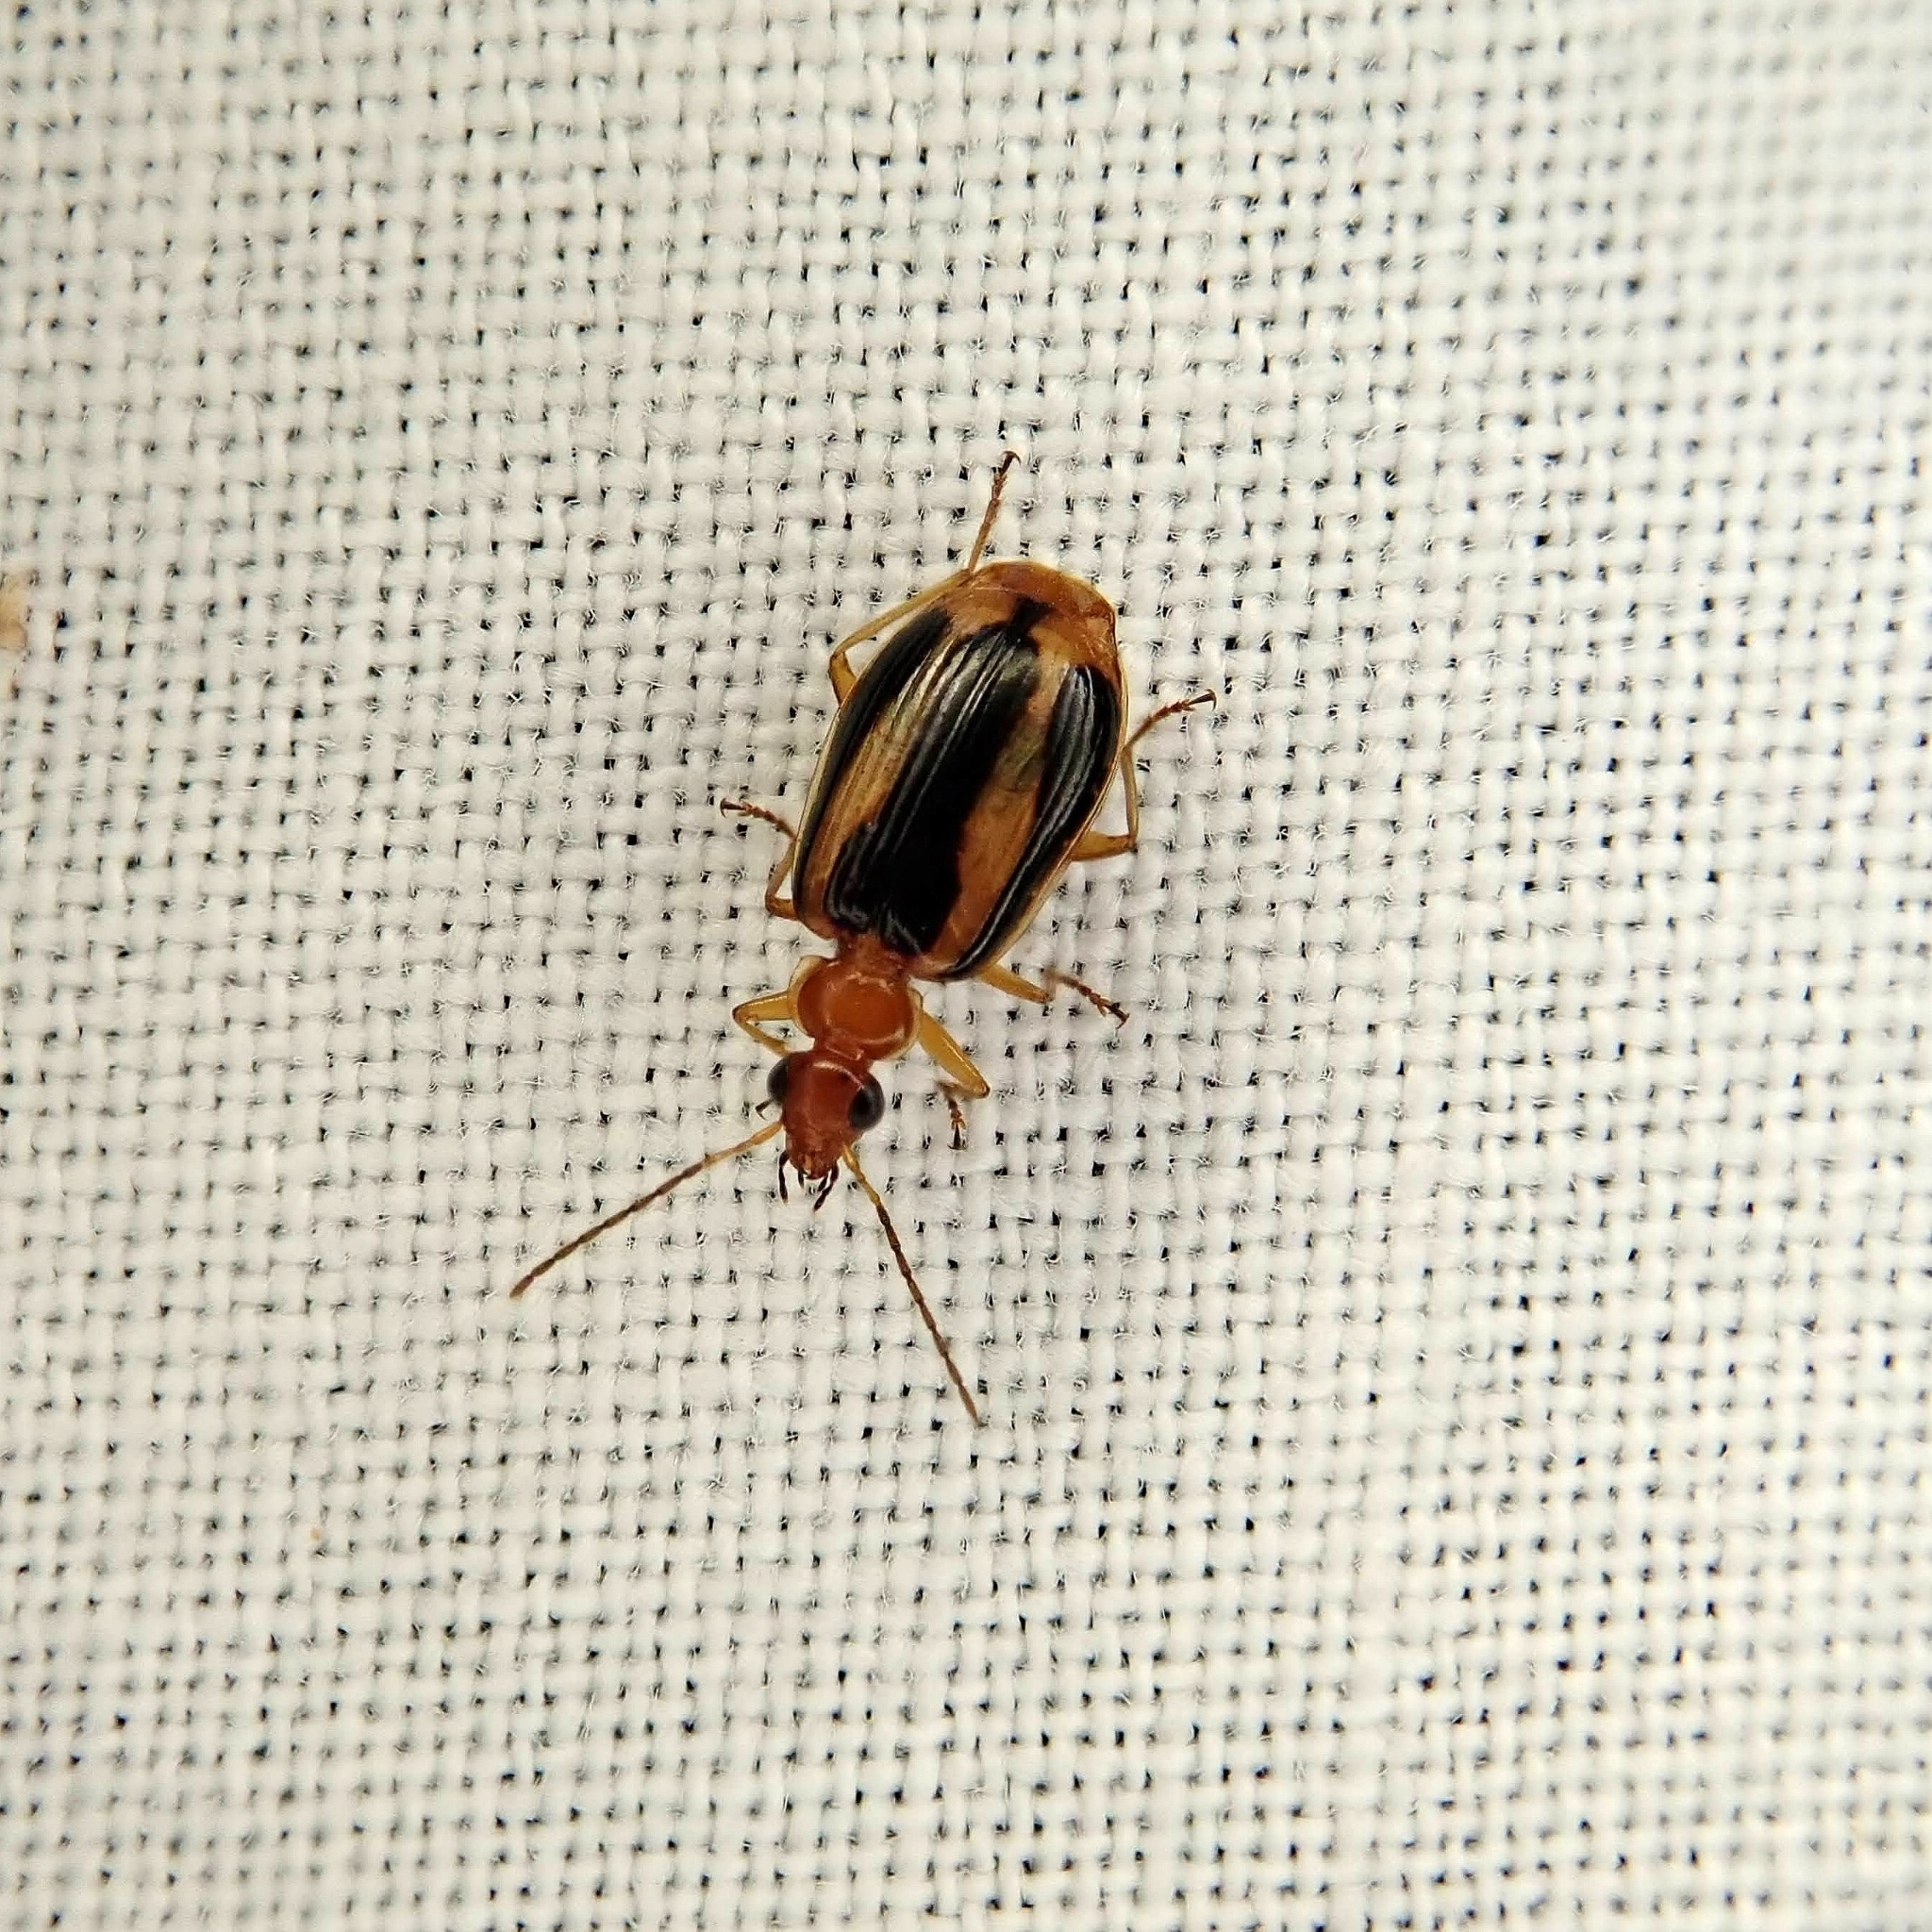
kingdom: Animalia
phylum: Arthropoda
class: Insecta
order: Coleoptera
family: Carabidae
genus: Lebia
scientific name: Lebia solea
